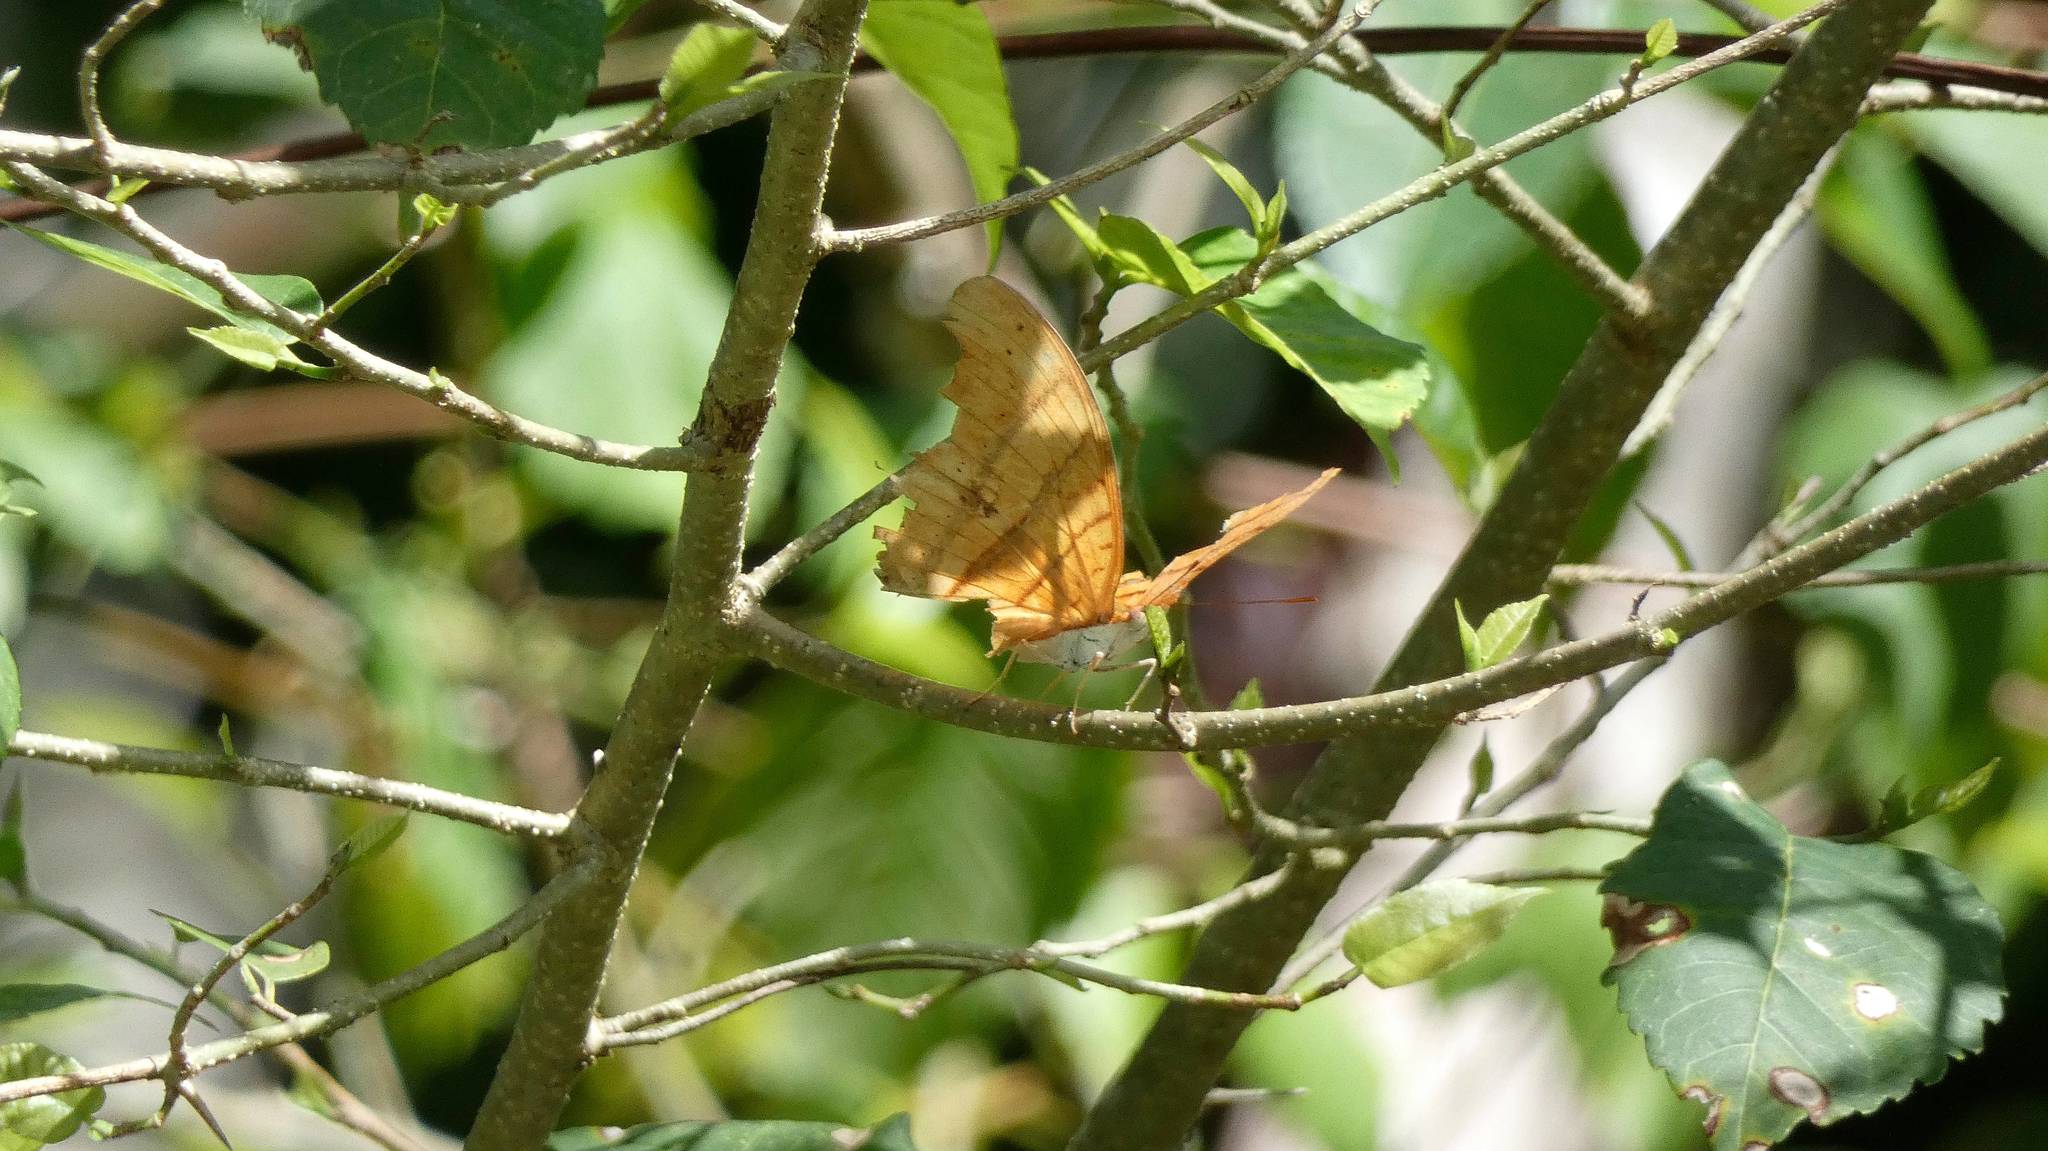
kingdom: Animalia
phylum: Arthropoda
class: Insecta
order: Lepidoptera
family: Nymphalidae
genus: Marpesia
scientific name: Marpesia petreus
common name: Red dagger wing
